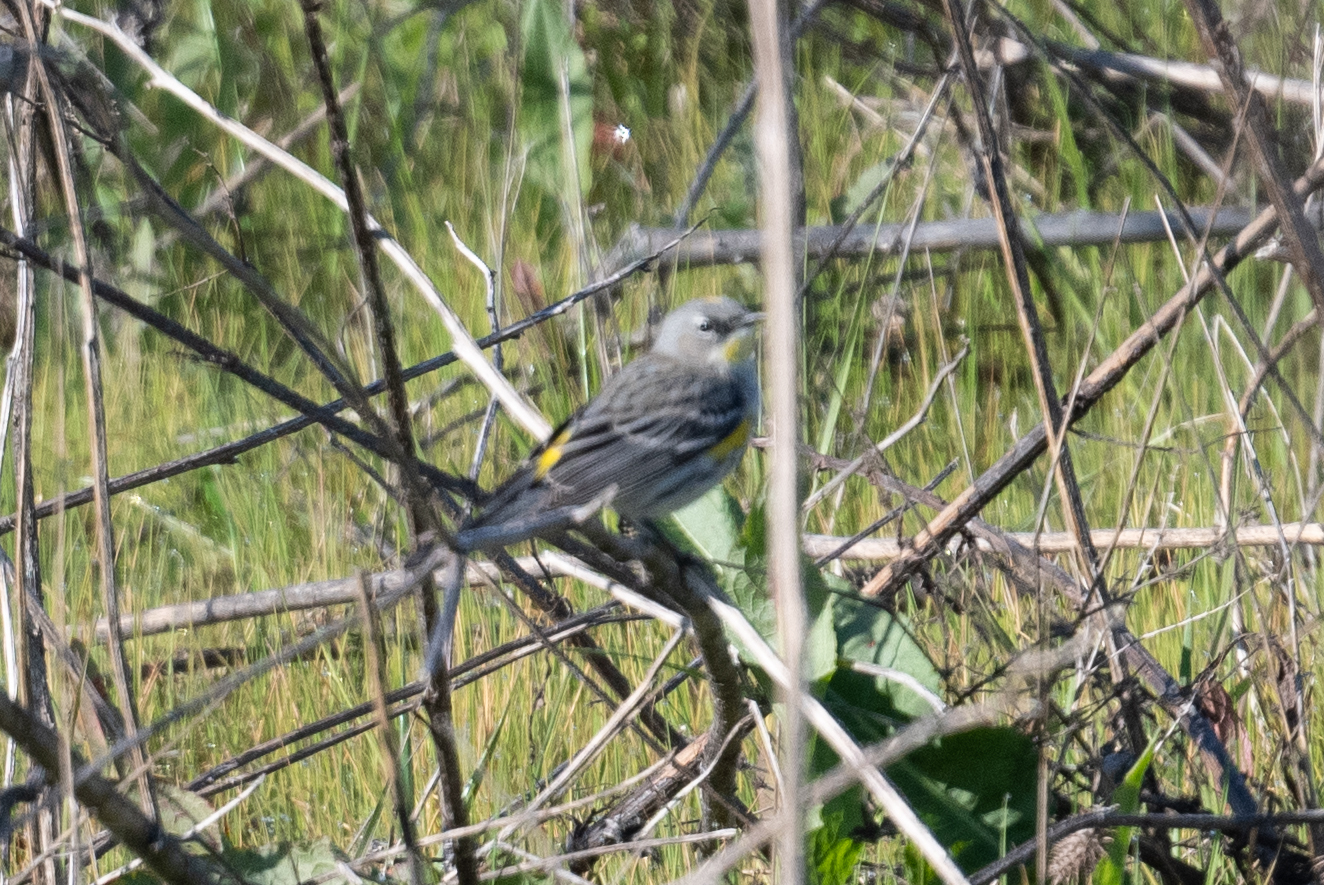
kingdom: Animalia
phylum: Chordata
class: Aves
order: Passeriformes
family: Parulidae
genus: Setophaga
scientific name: Setophaga coronata
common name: Myrtle warbler
